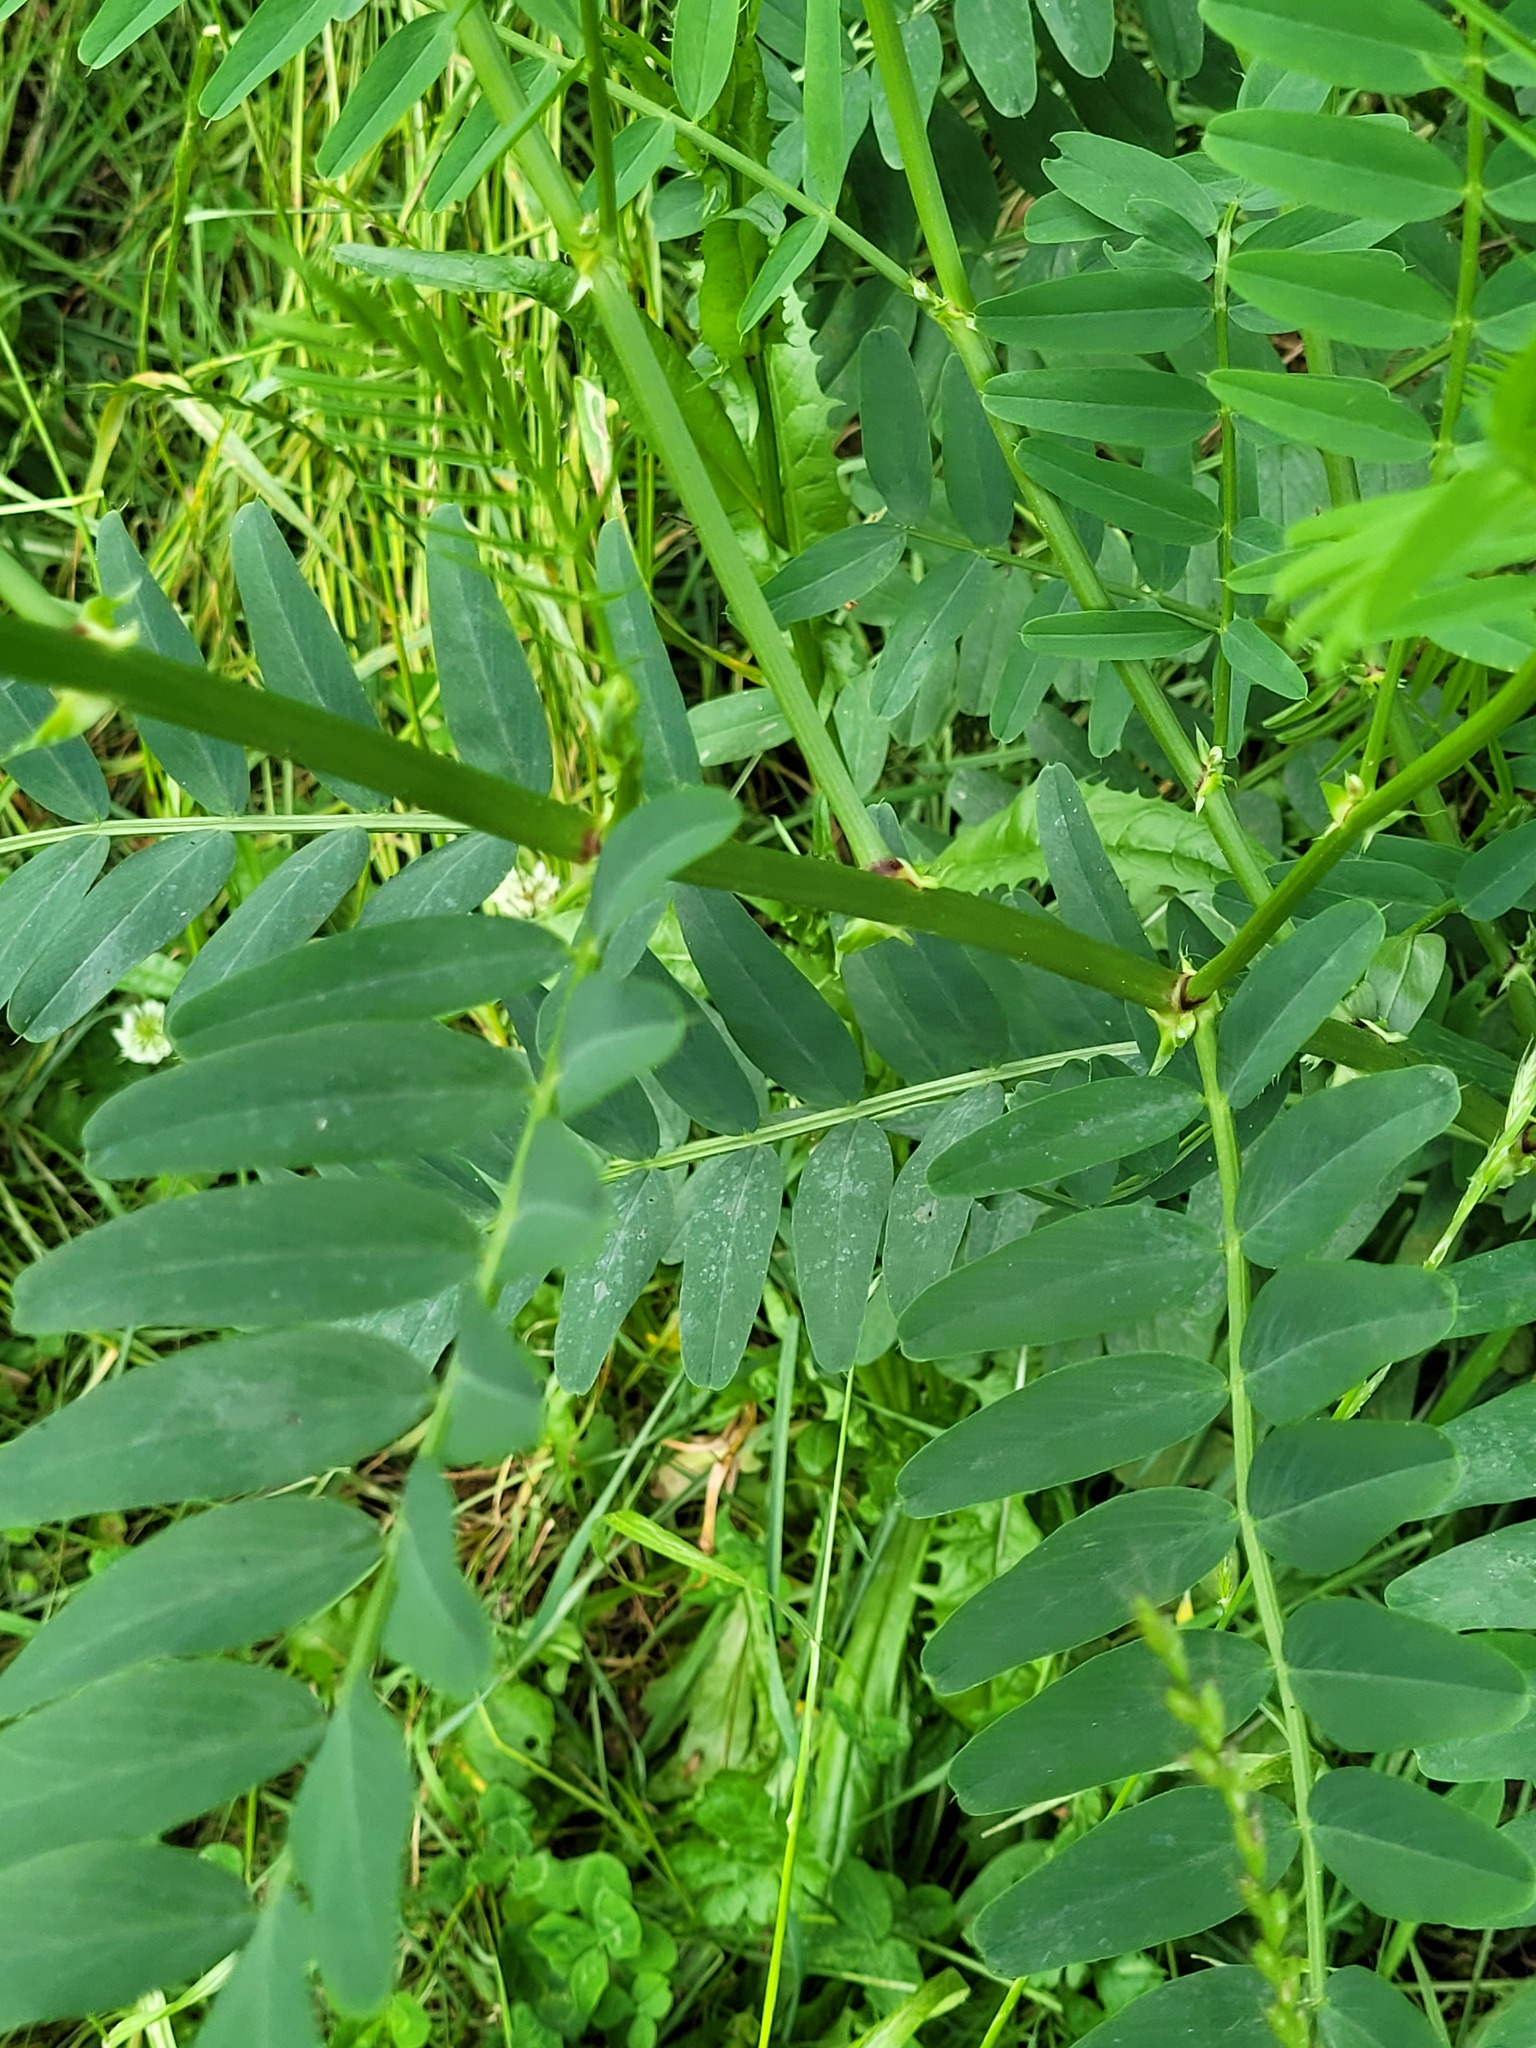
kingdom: Plantae
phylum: Tracheophyta
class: Magnoliopsida
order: Fabales
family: Fabaceae
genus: Galega
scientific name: Galega officinalis
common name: Goat's-rue
